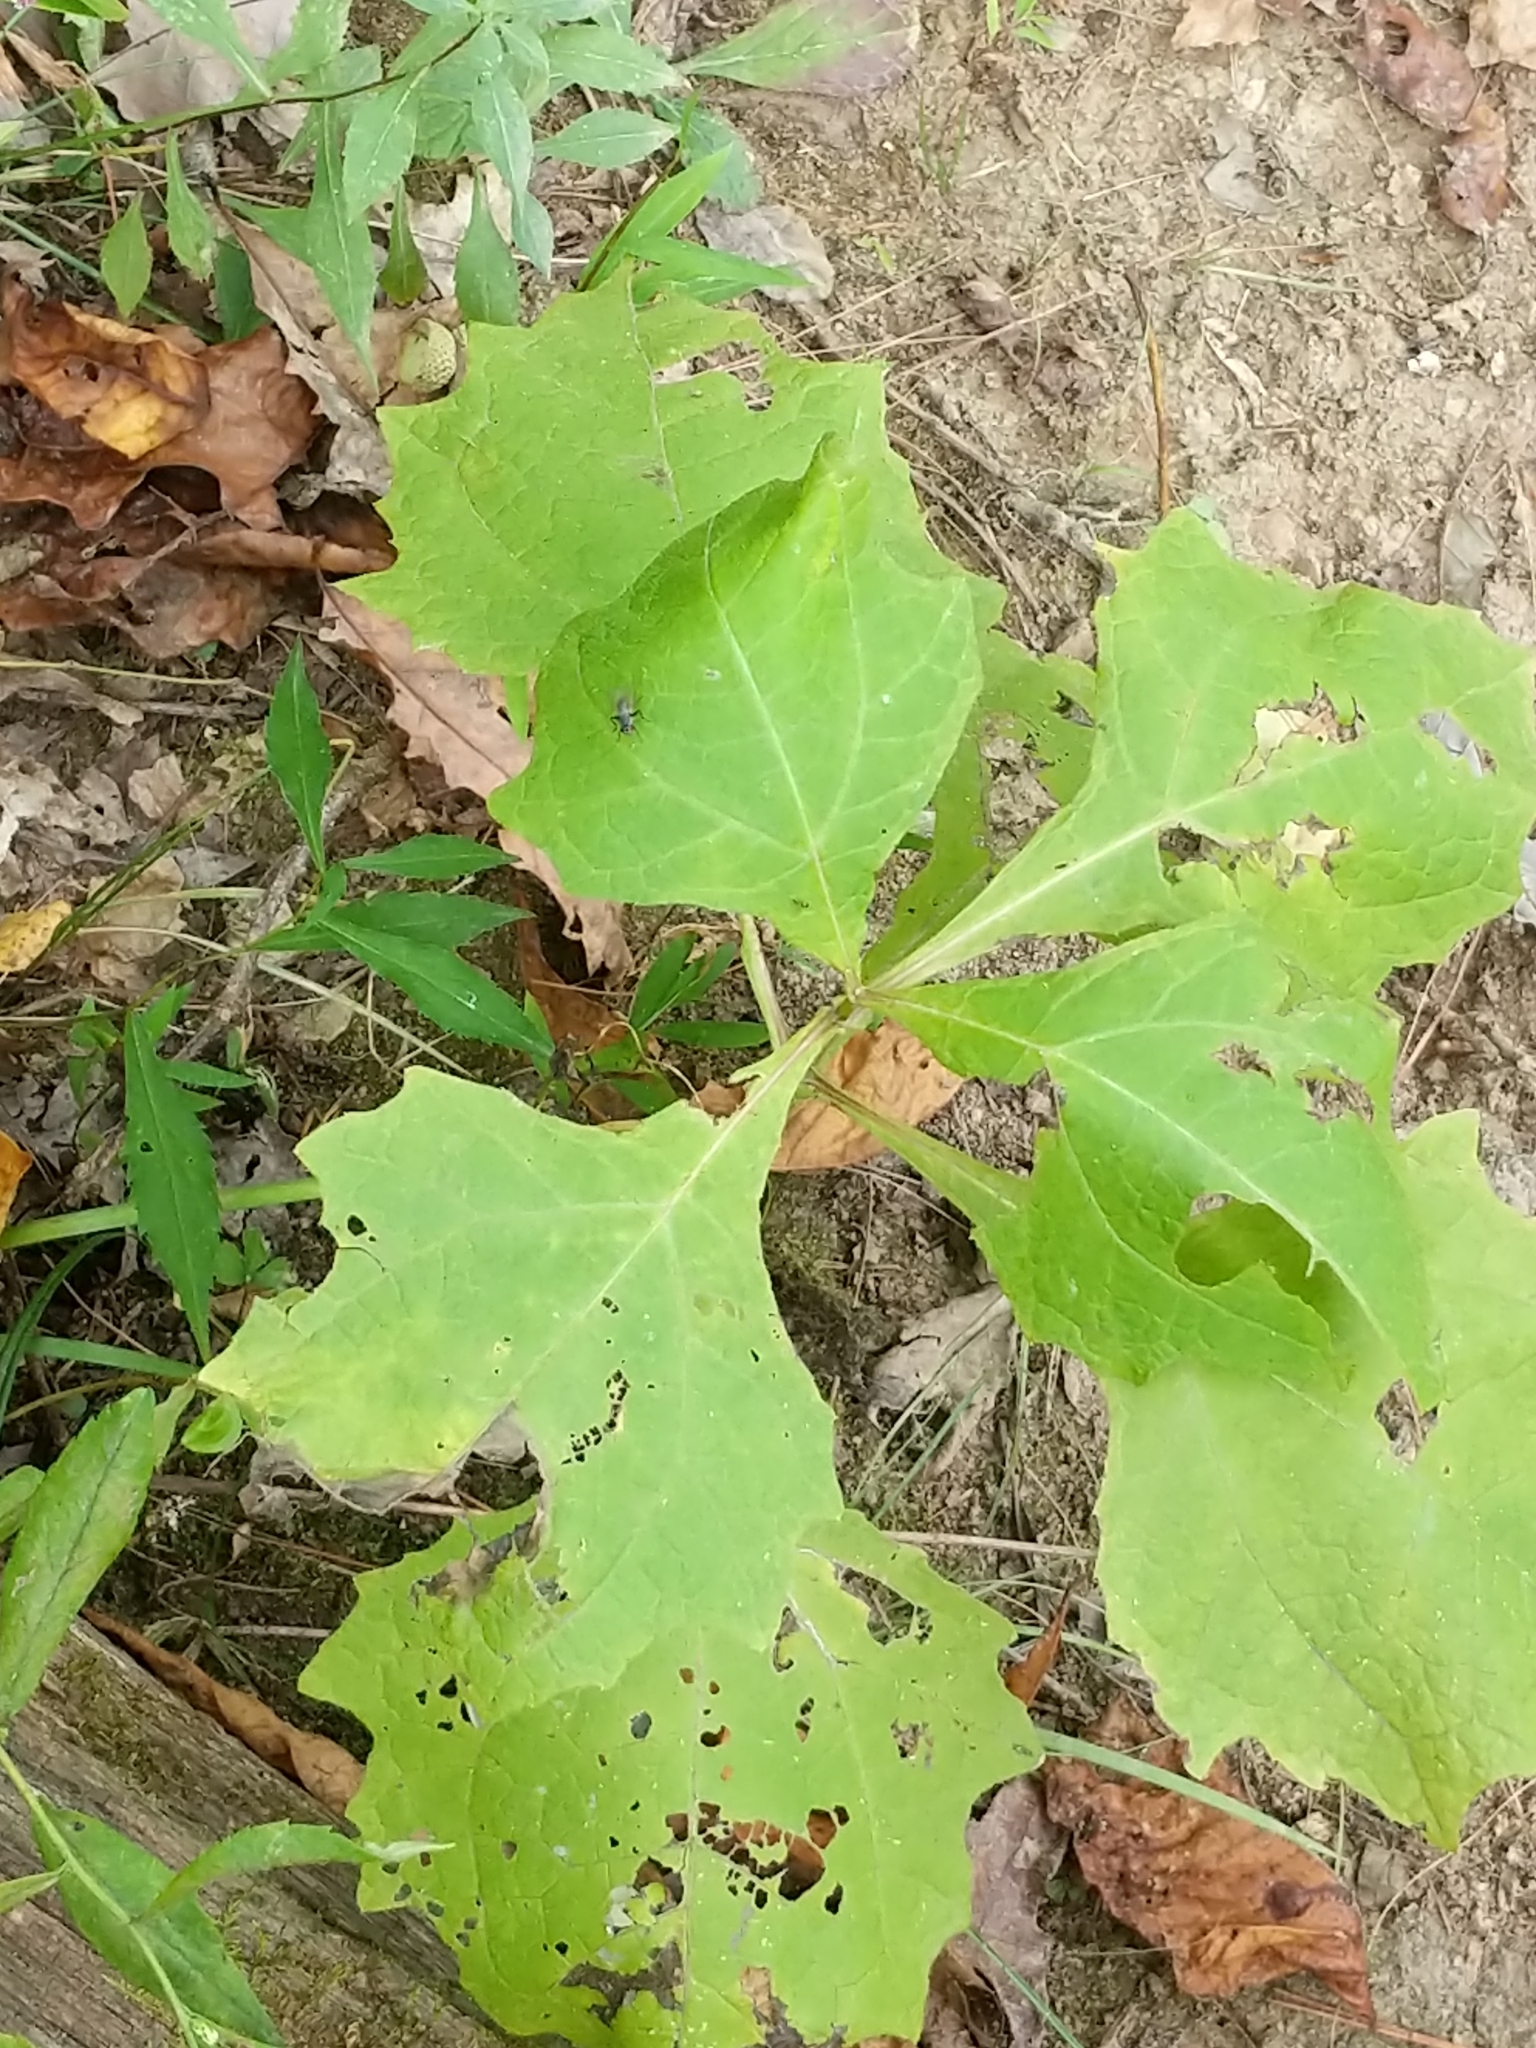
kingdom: Plantae
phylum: Tracheophyta
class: Magnoliopsida
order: Asterales
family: Asteraceae
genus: Smallanthus
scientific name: Smallanthus uvedalia
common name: Bear's-foot
